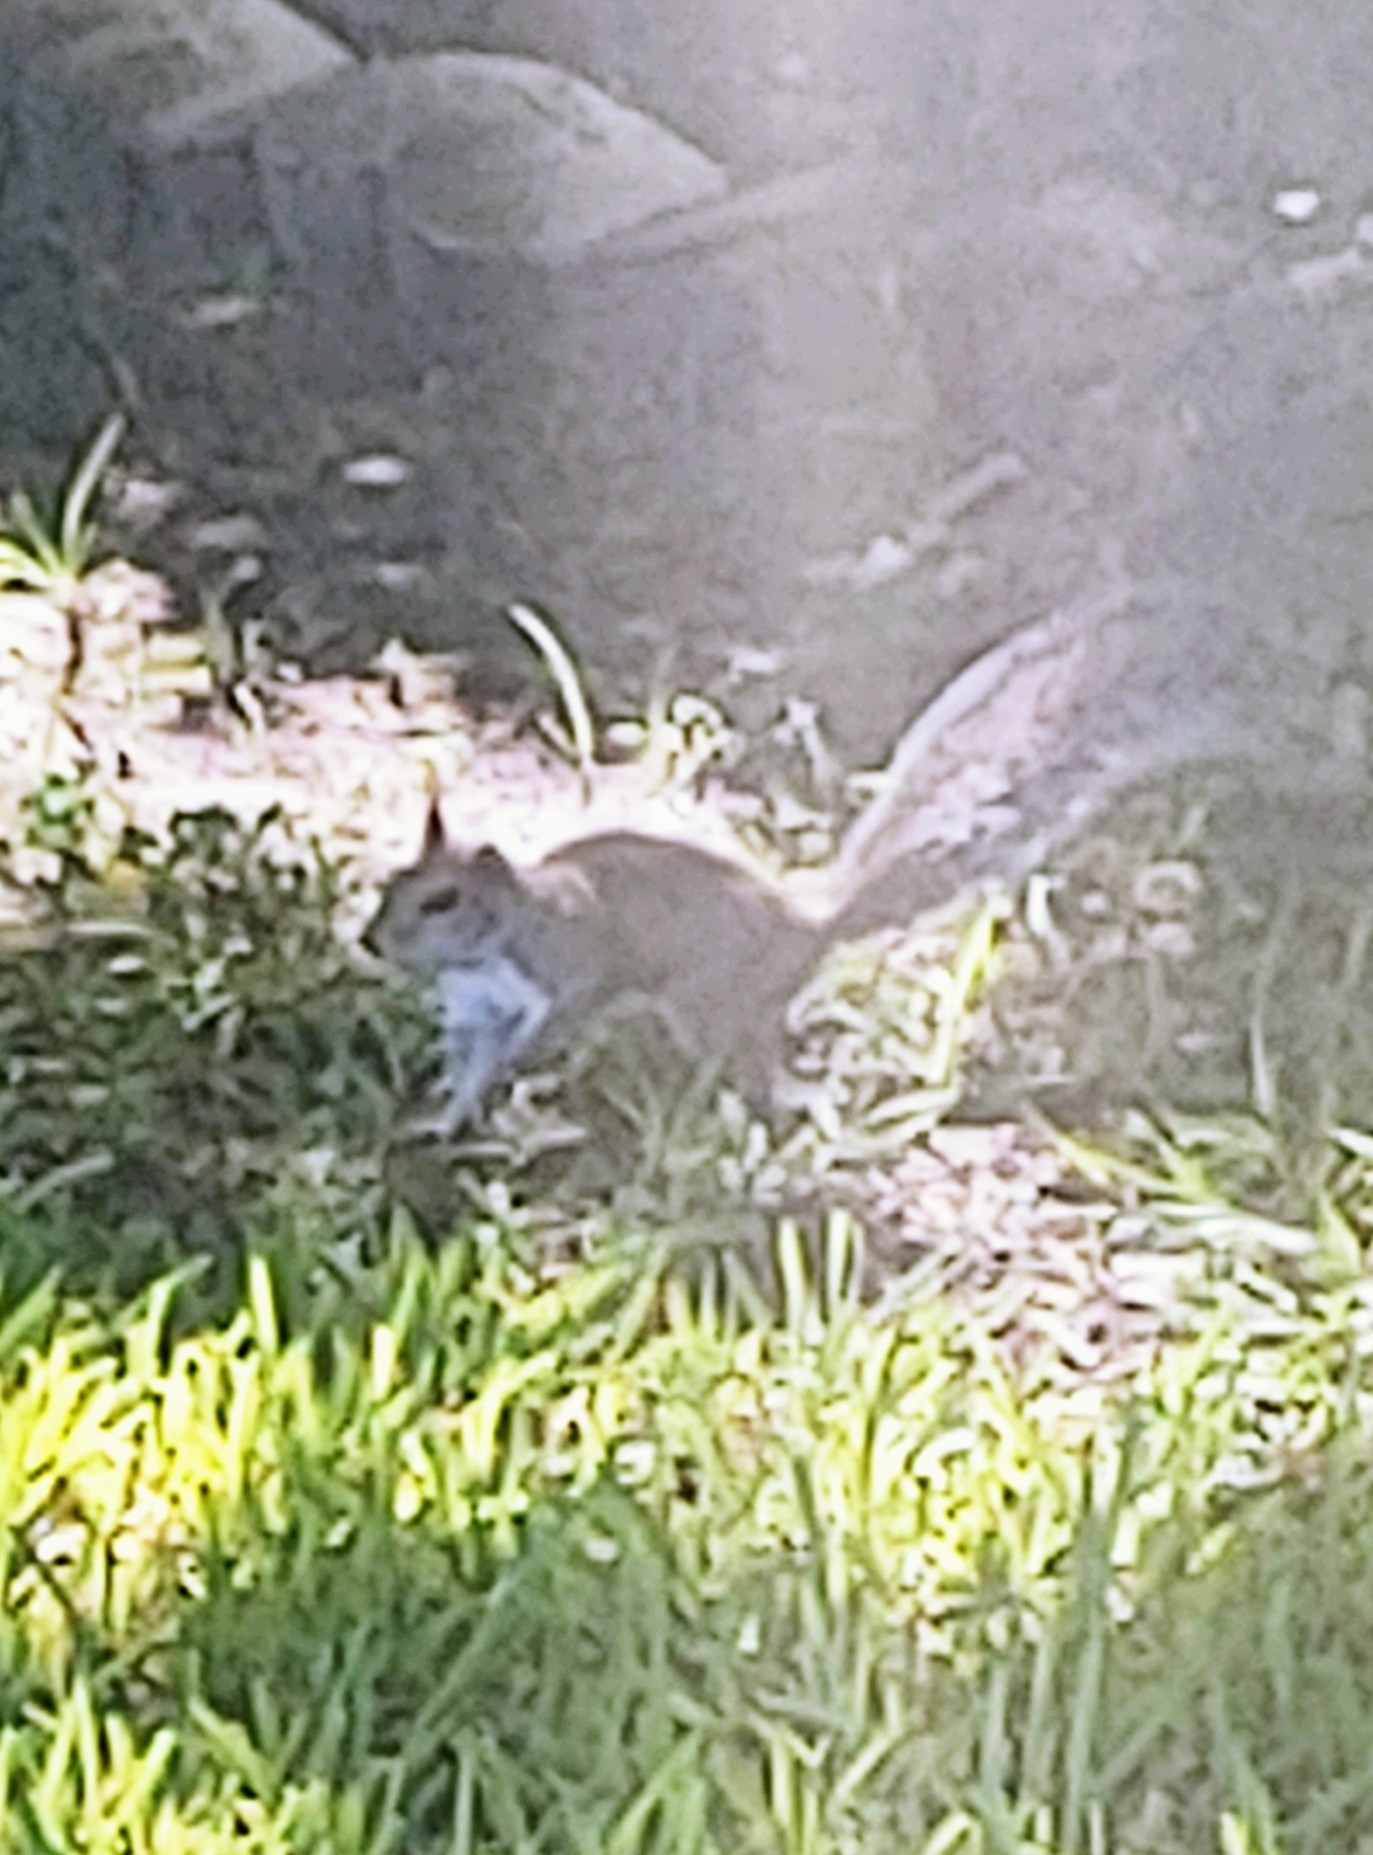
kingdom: Animalia
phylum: Chordata
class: Mammalia
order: Rodentia
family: Sciuridae
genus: Sciurus
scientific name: Sciurus carolinensis
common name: Eastern gray squirrel
